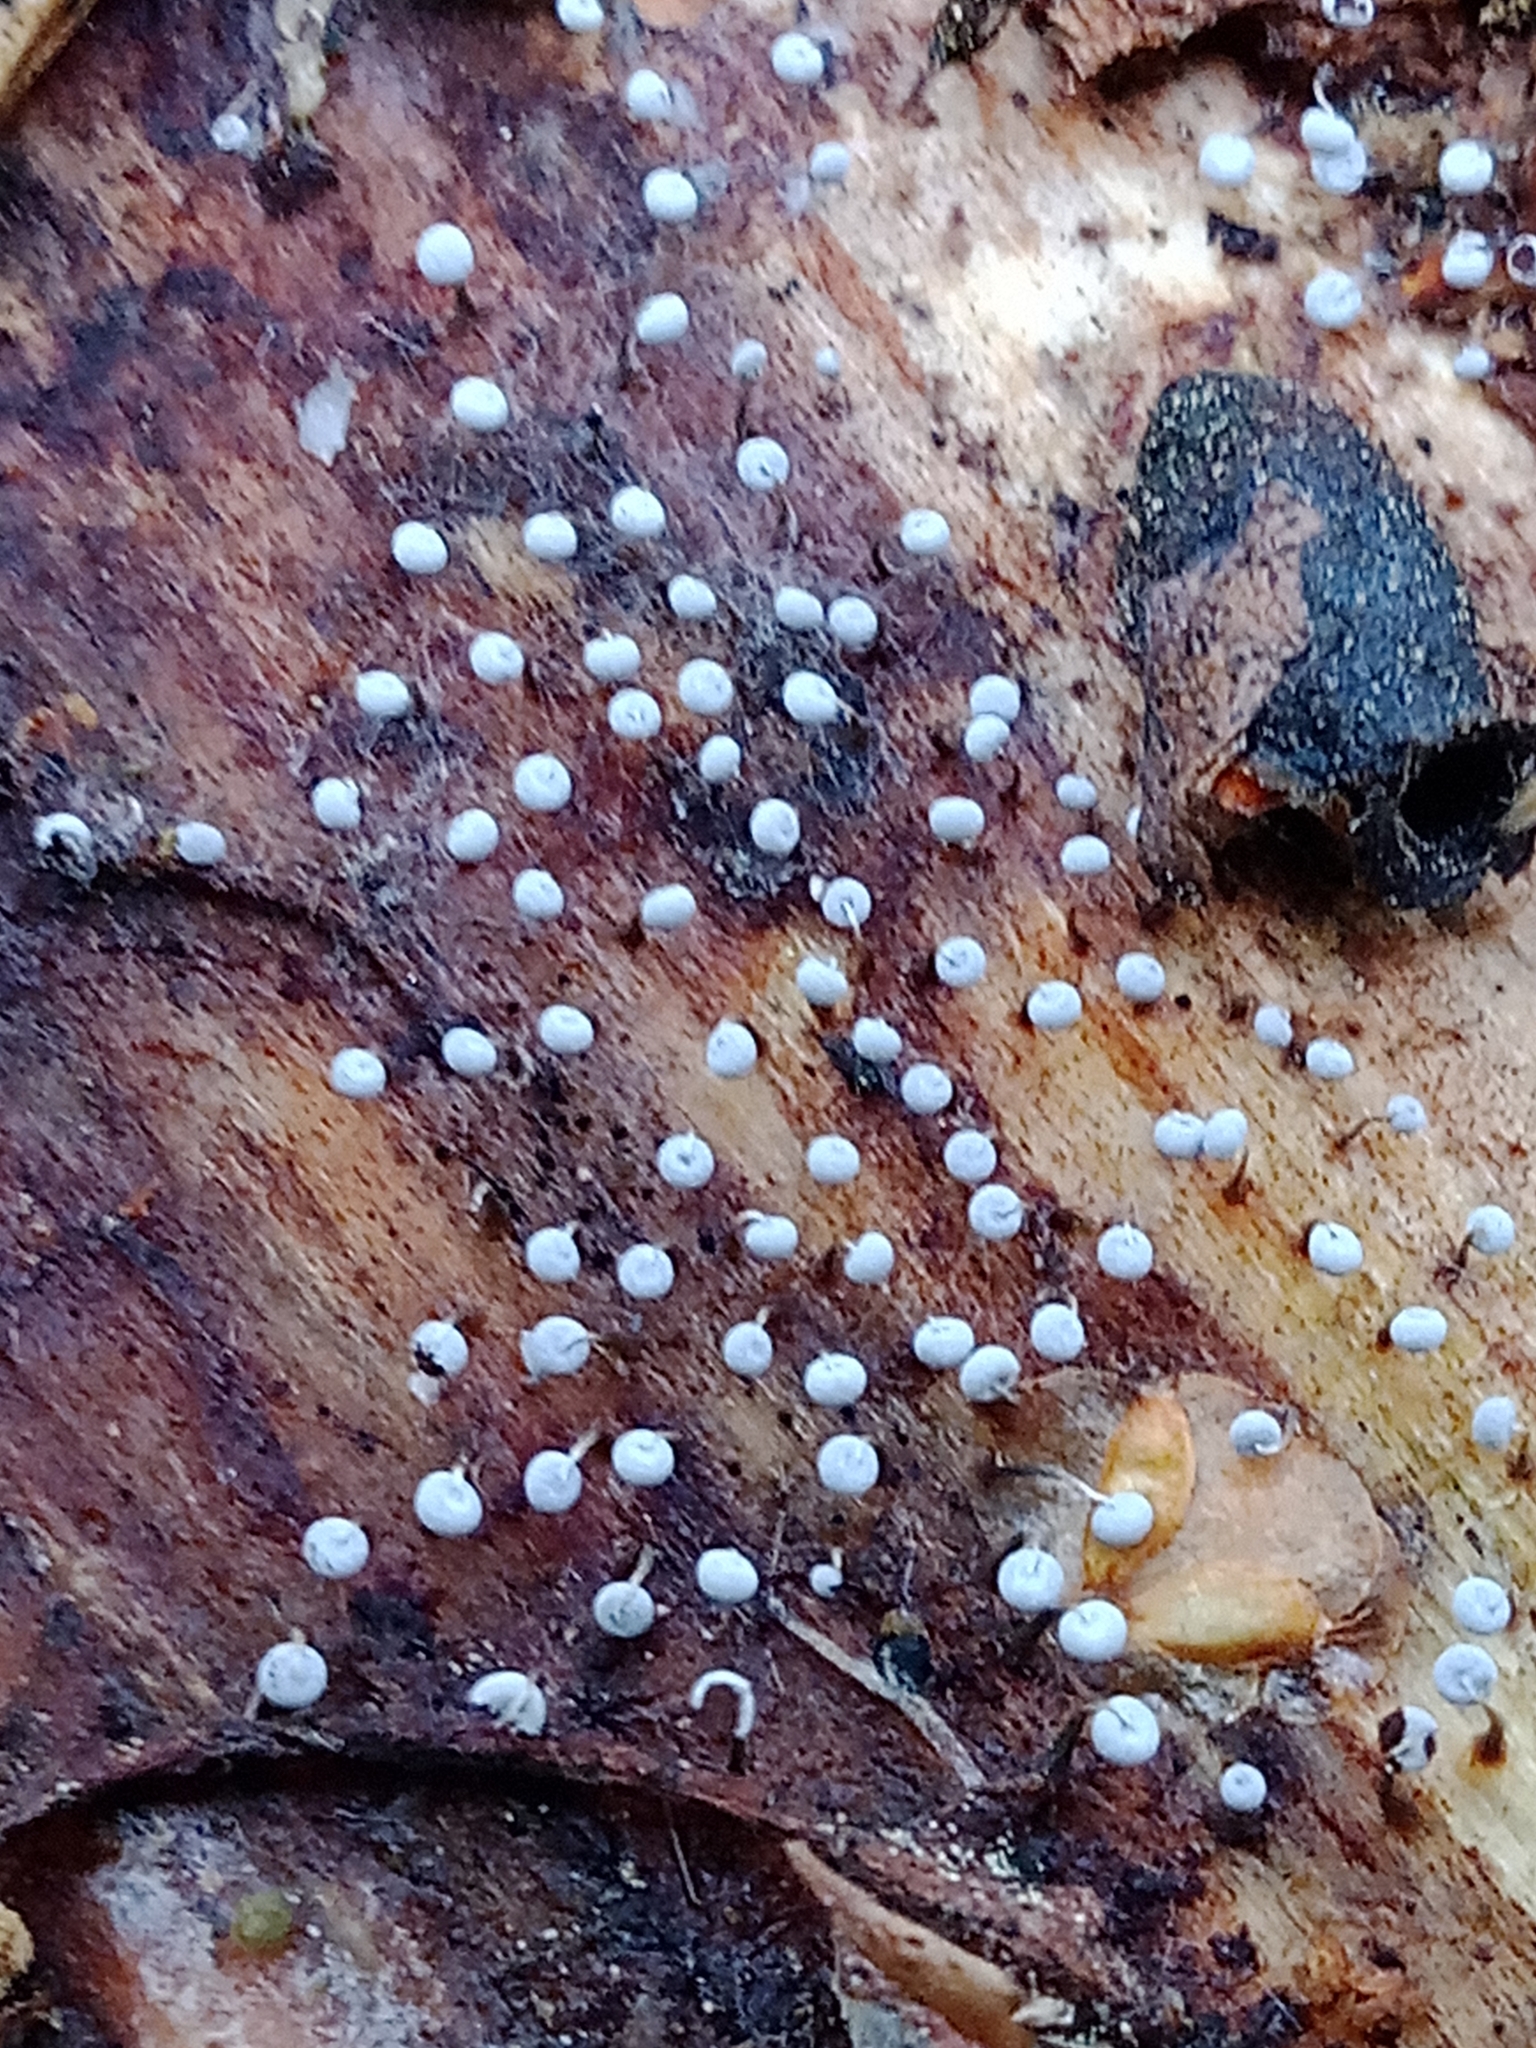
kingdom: Protozoa
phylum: Mycetozoa
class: Myxomycetes
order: Physarales
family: Physaraceae
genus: Physarum
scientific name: Physarum album
